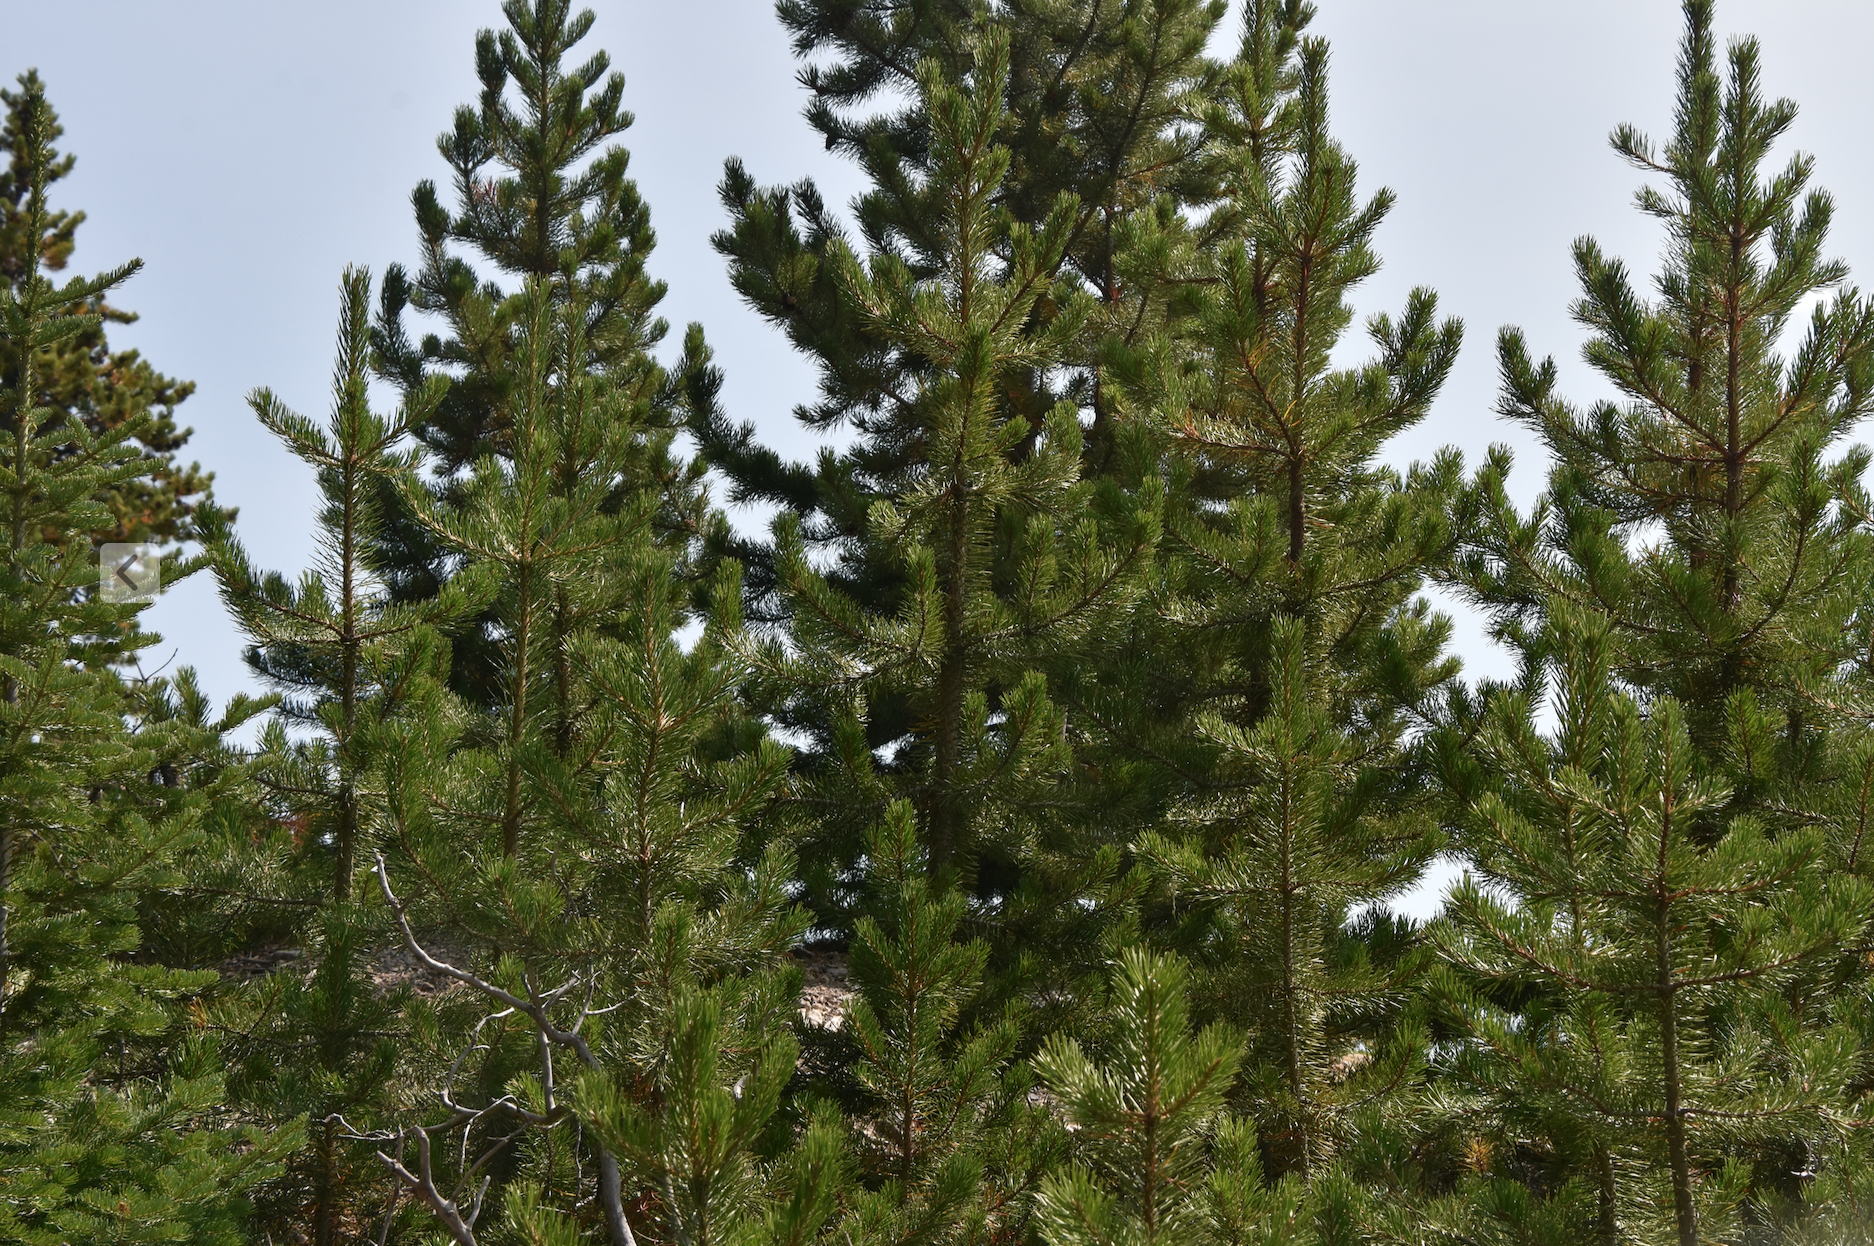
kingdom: Plantae
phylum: Tracheophyta
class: Pinopsida
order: Pinales
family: Pinaceae
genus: Pinus
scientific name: Pinus contorta
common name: Lodgepole pine
